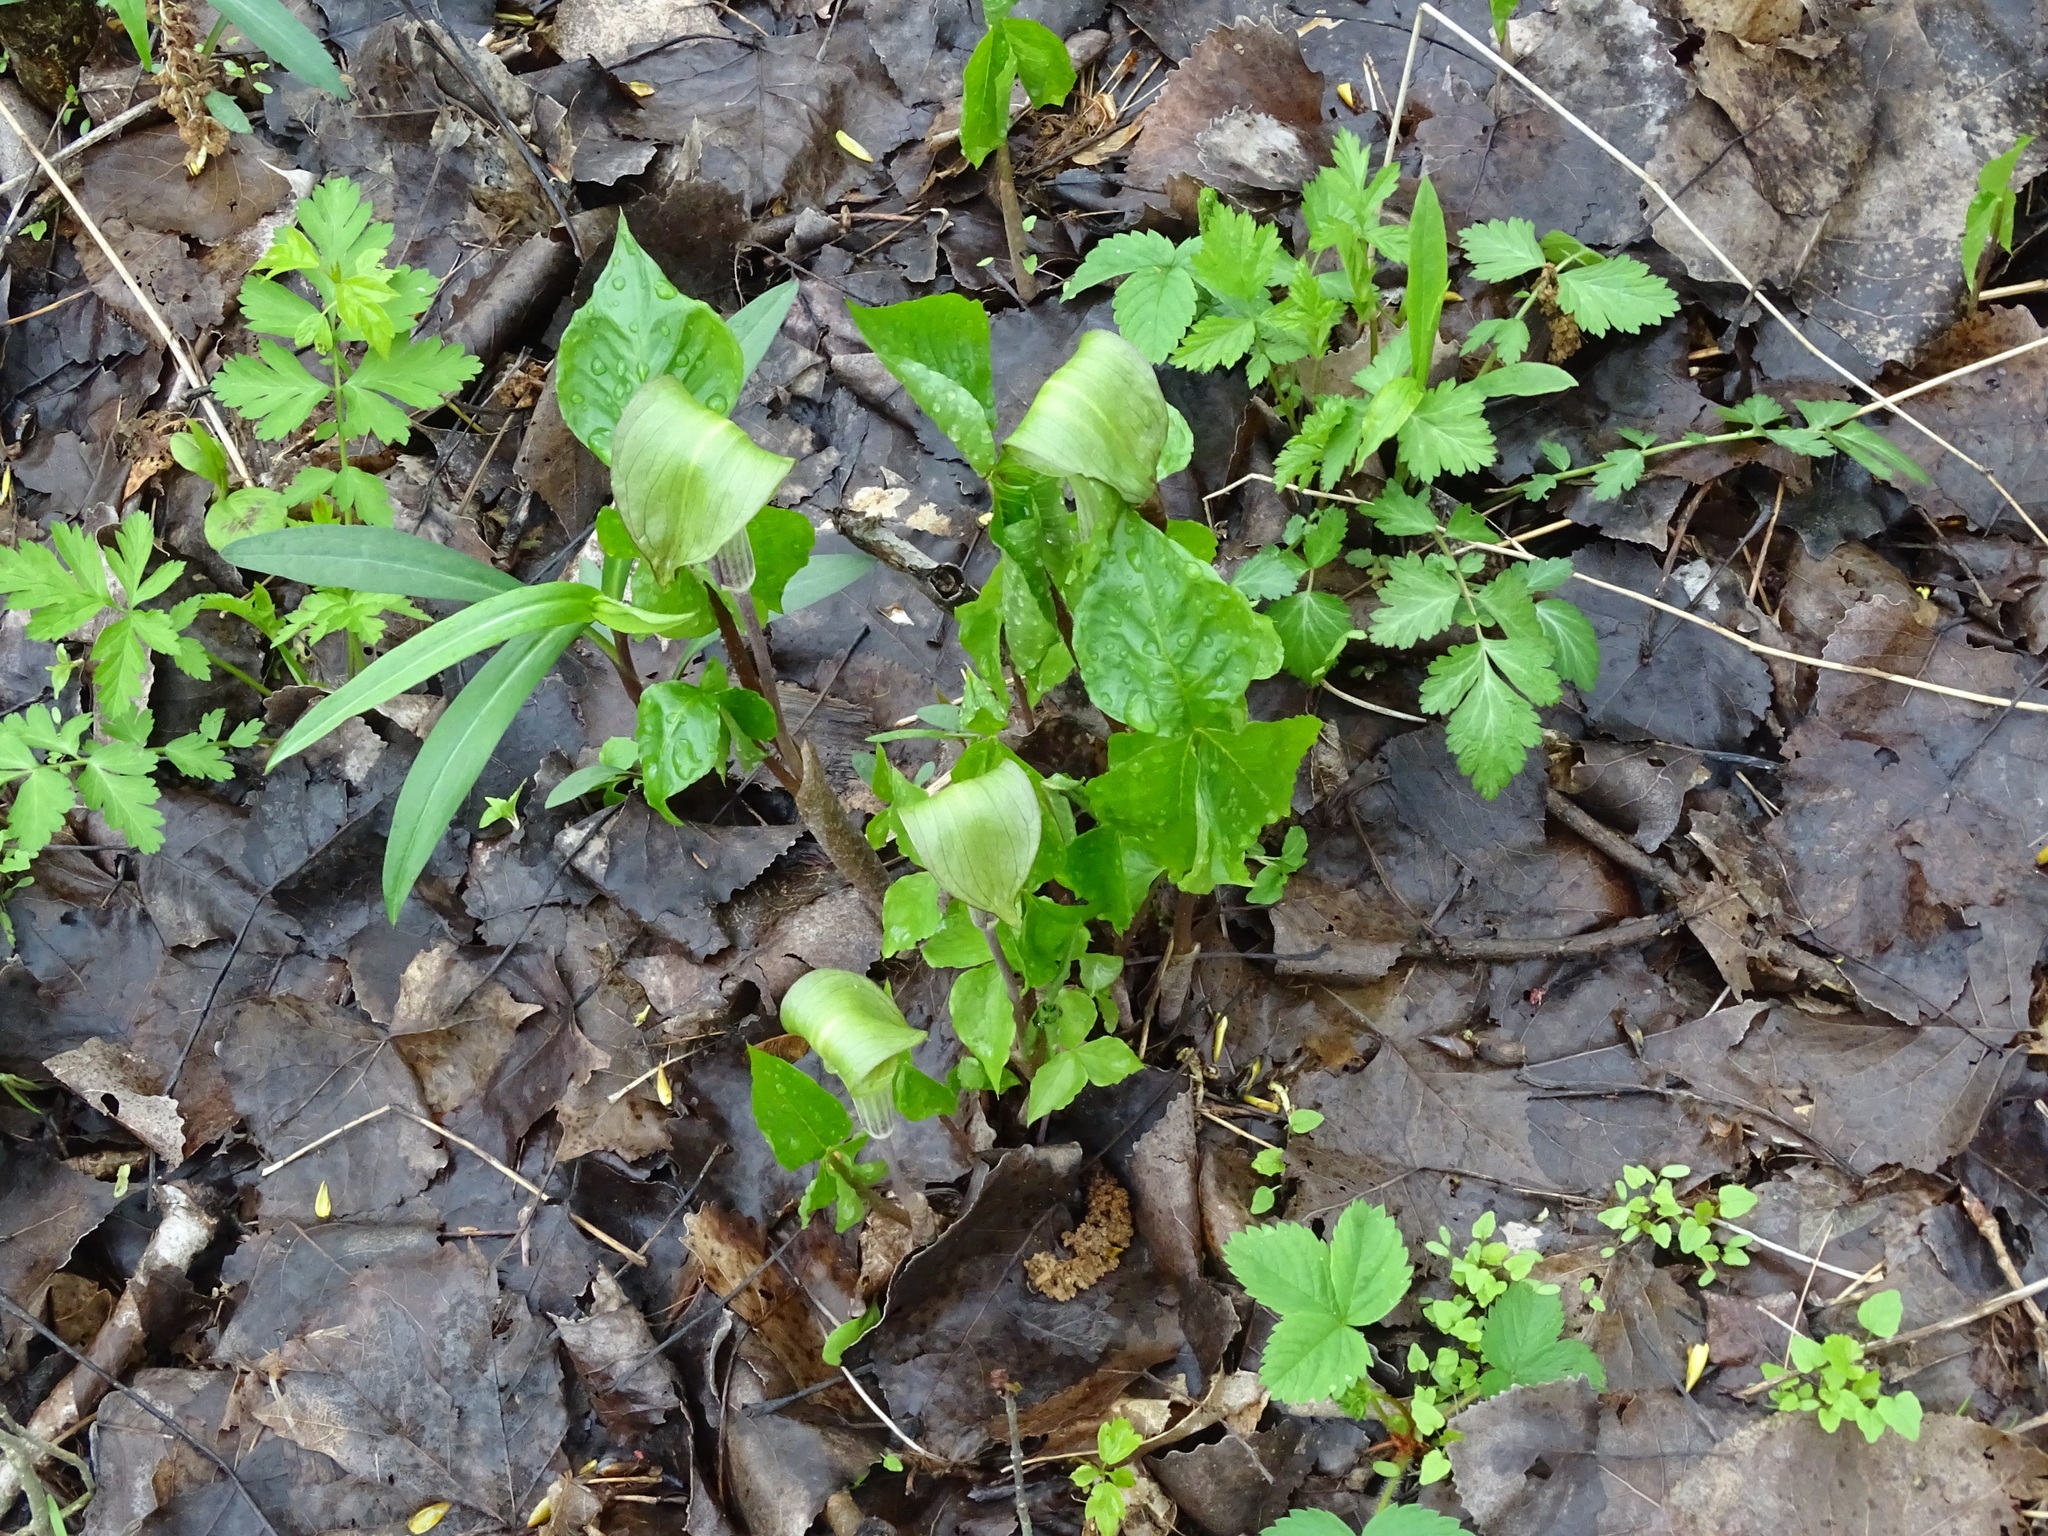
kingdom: Plantae
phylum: Tracheophyta
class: Liliopsida
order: Alismatales
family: Araceae
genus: Arisaema
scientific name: Arisaema triphyllum
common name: Jack-in-the-pulpit
